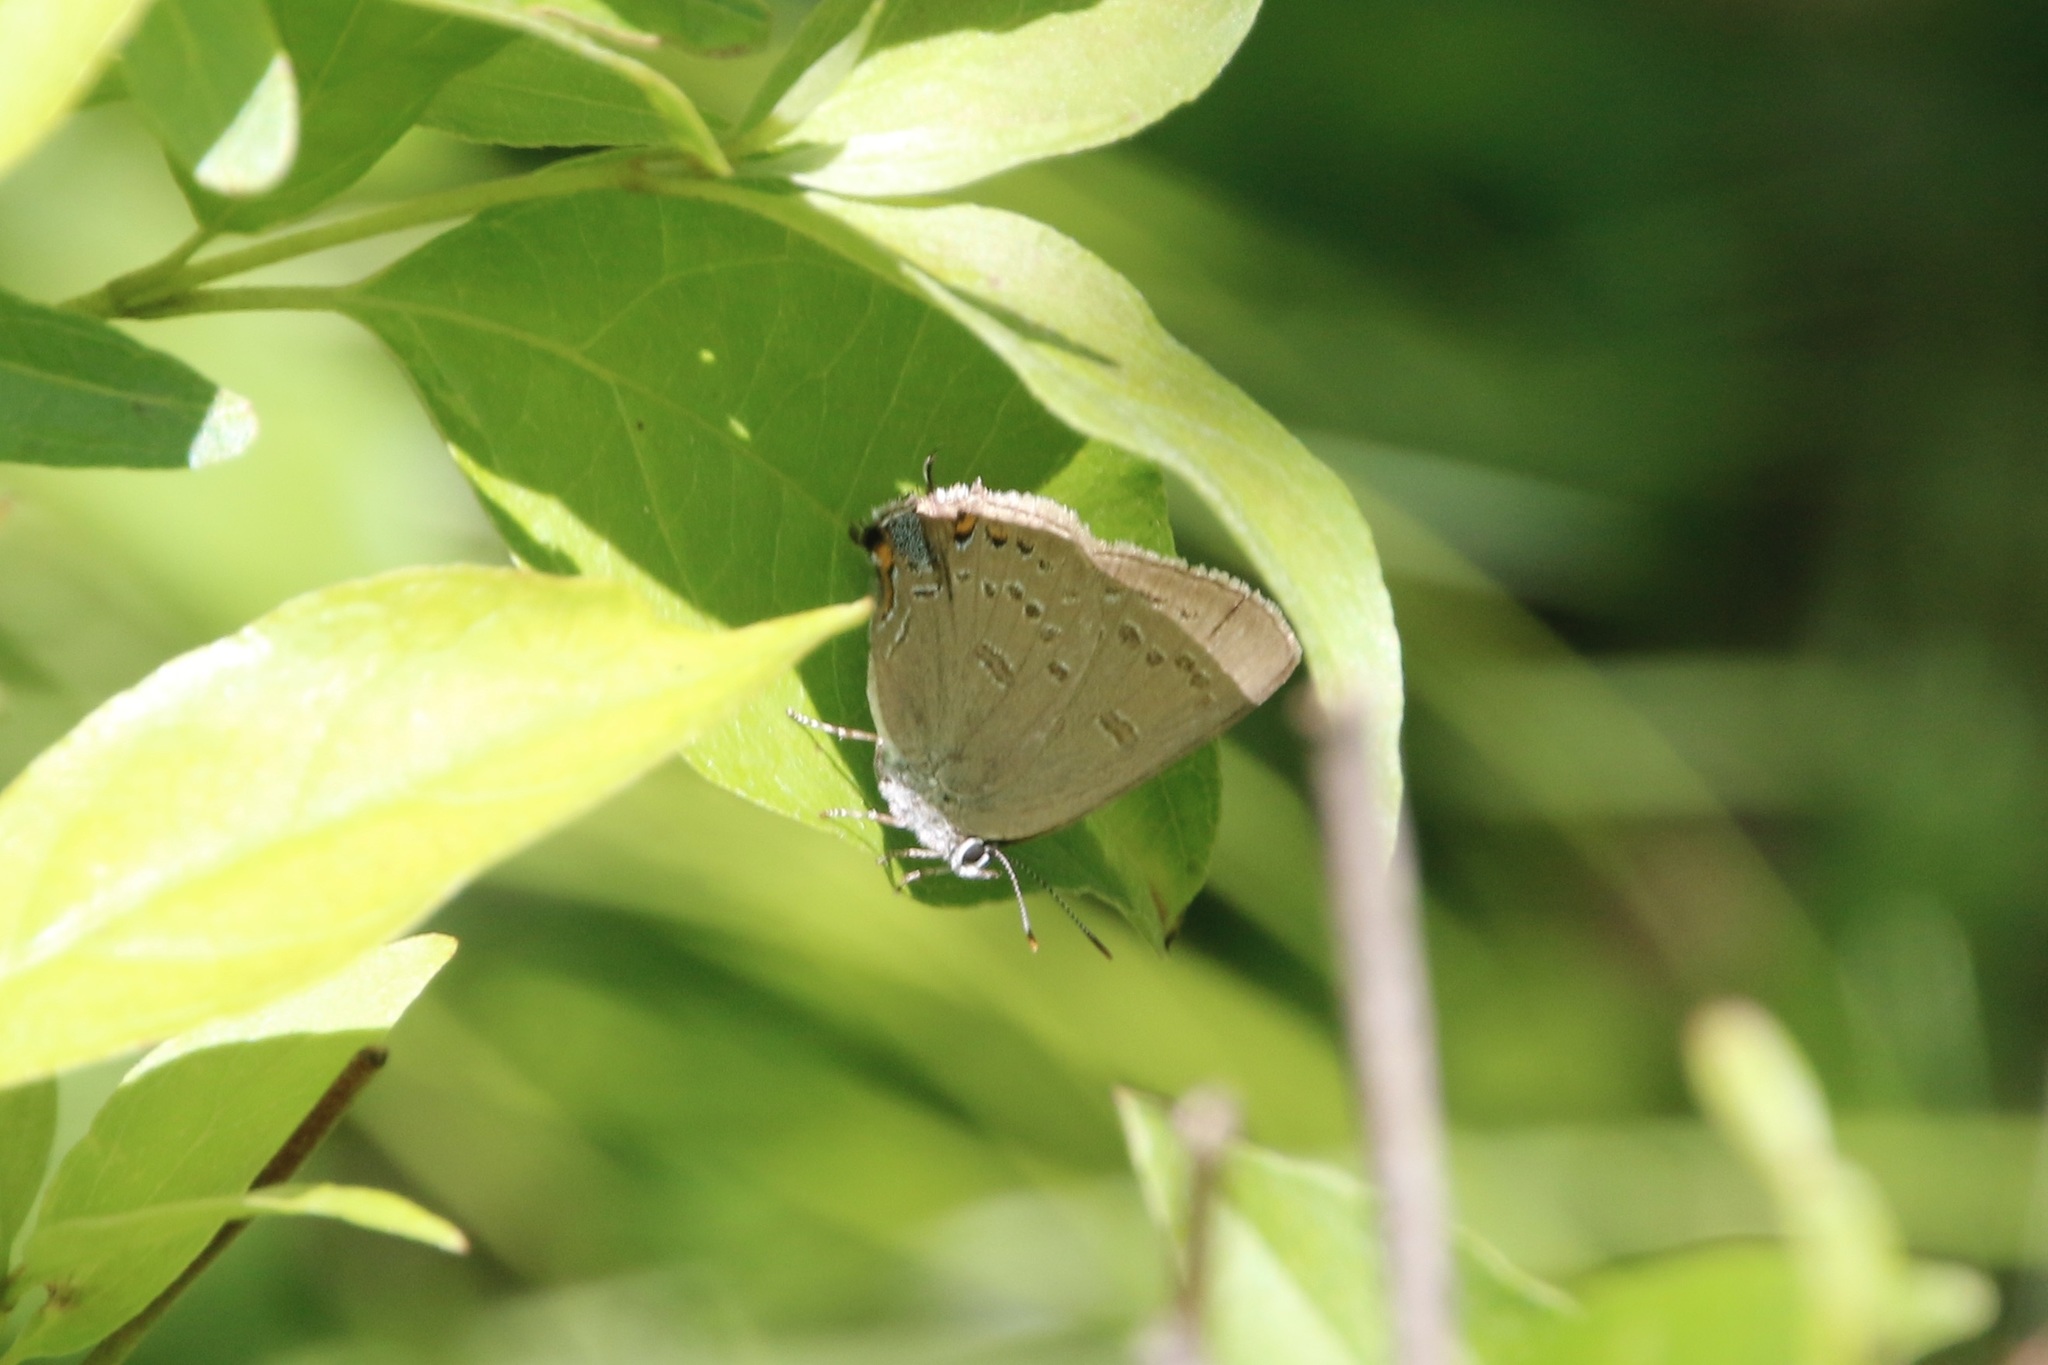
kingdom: Animalia
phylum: Arthropoda
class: Insecta
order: Lepidoptera
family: Lycaenidae
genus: Satyrium
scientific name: Satyrium edwardsii
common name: Edwards' hairstreak
